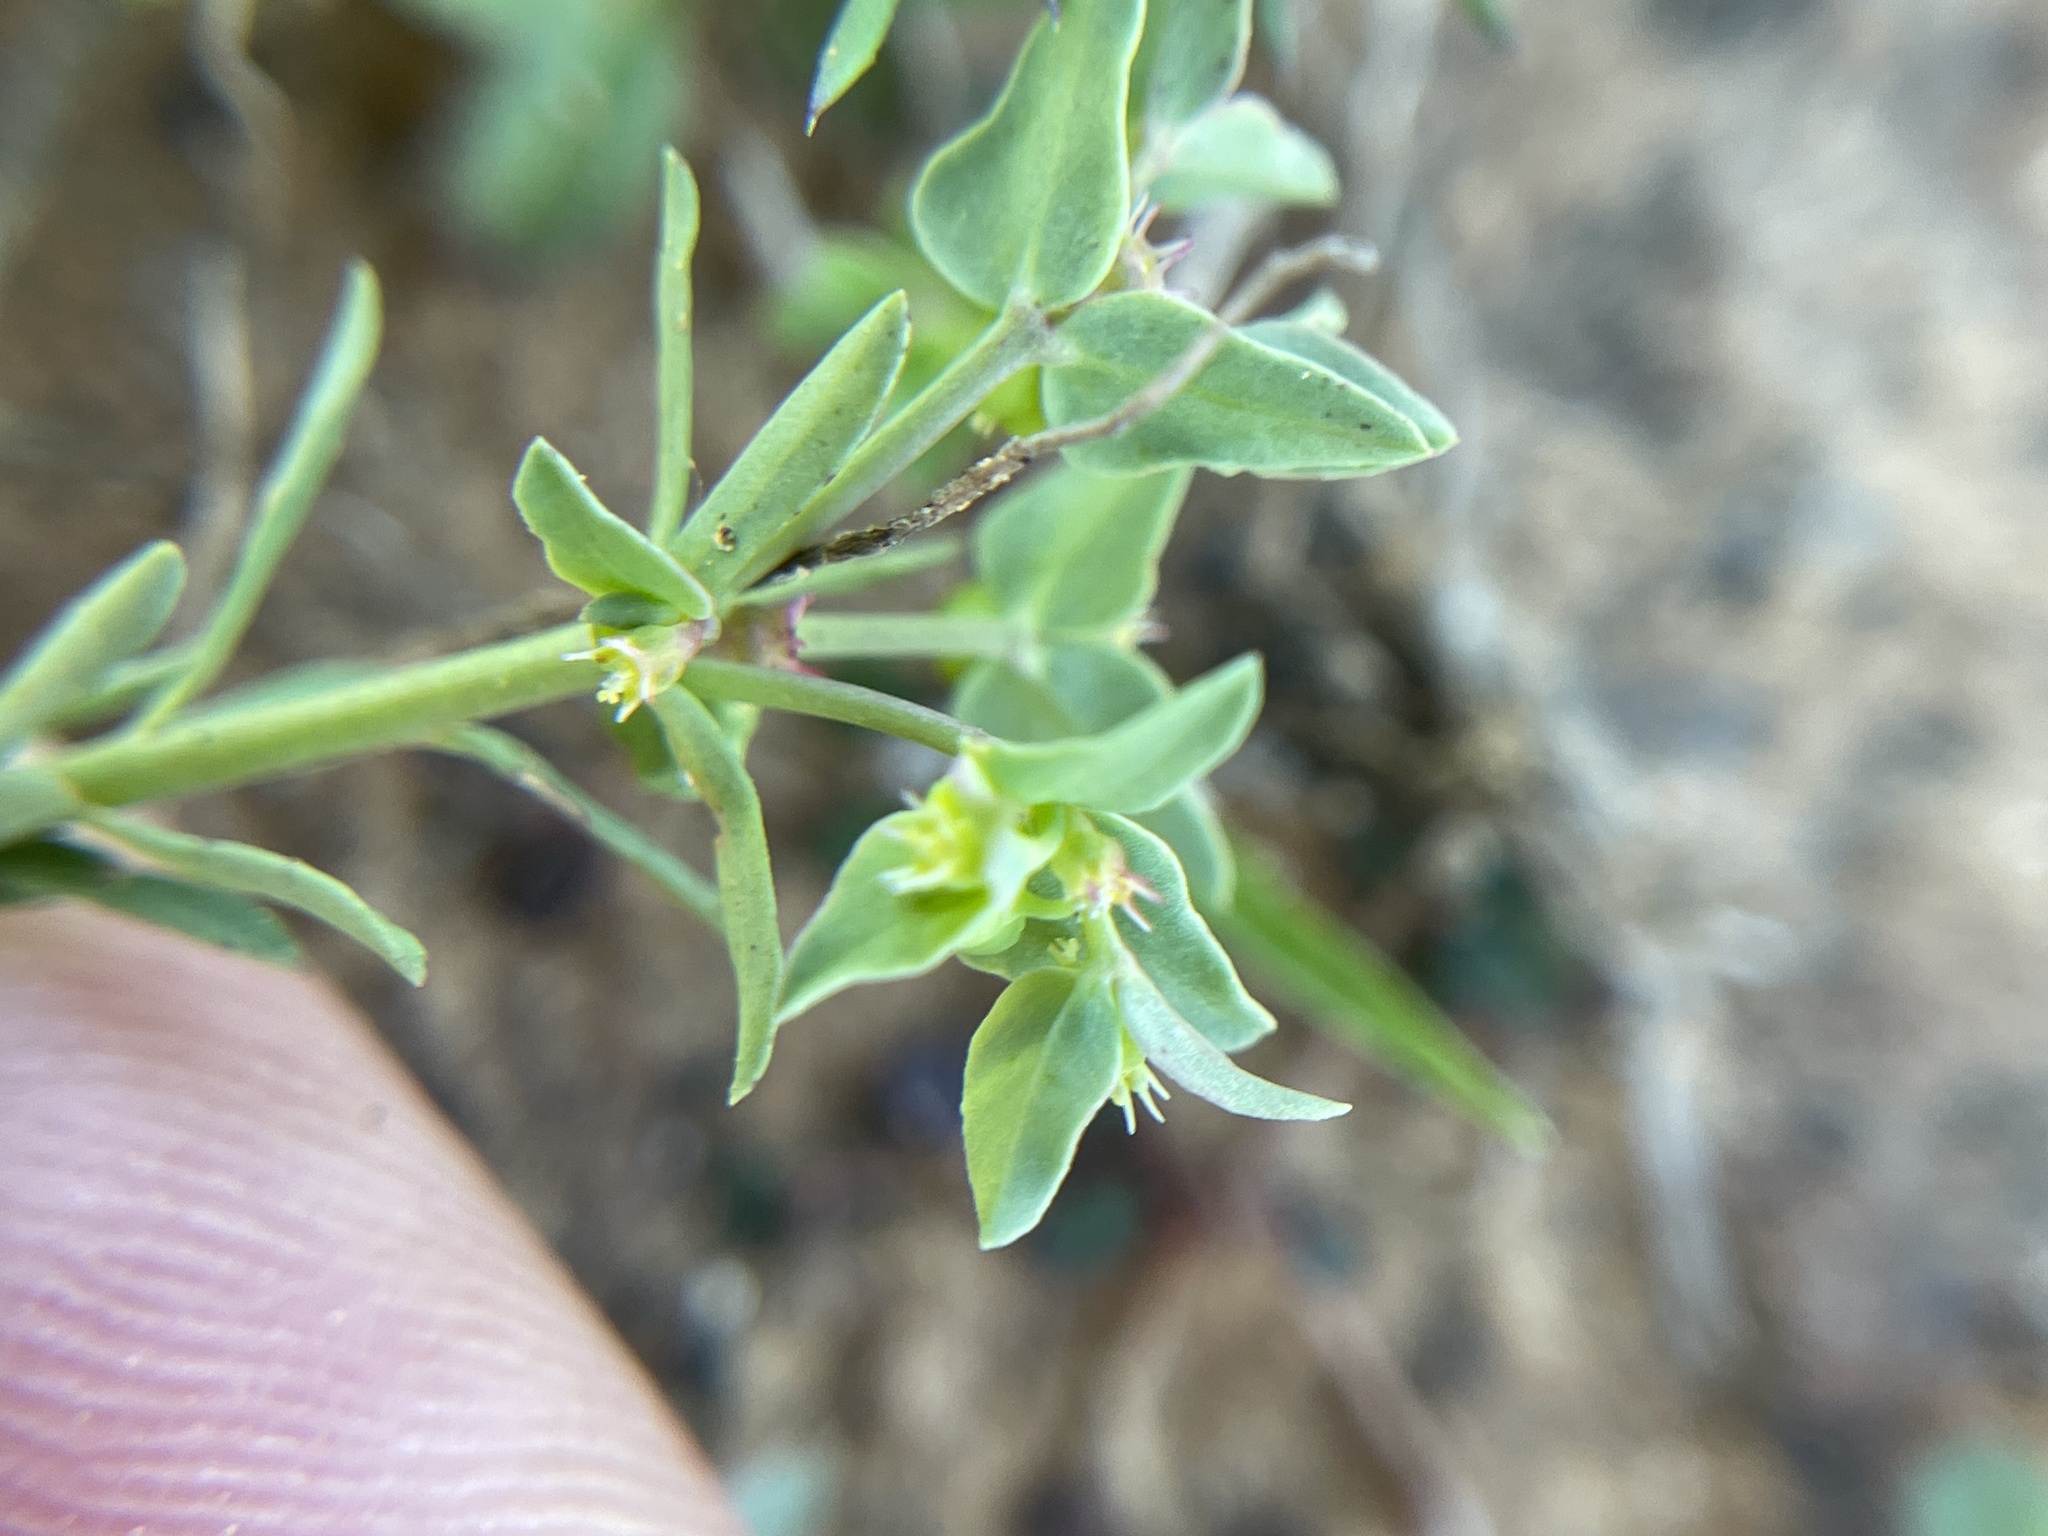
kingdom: Plantae
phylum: Tracheophyta
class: Magnoliopsida
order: Malpighiales
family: Euphorbiaceae
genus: Euphorbia
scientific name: Euphorbia peplidion
